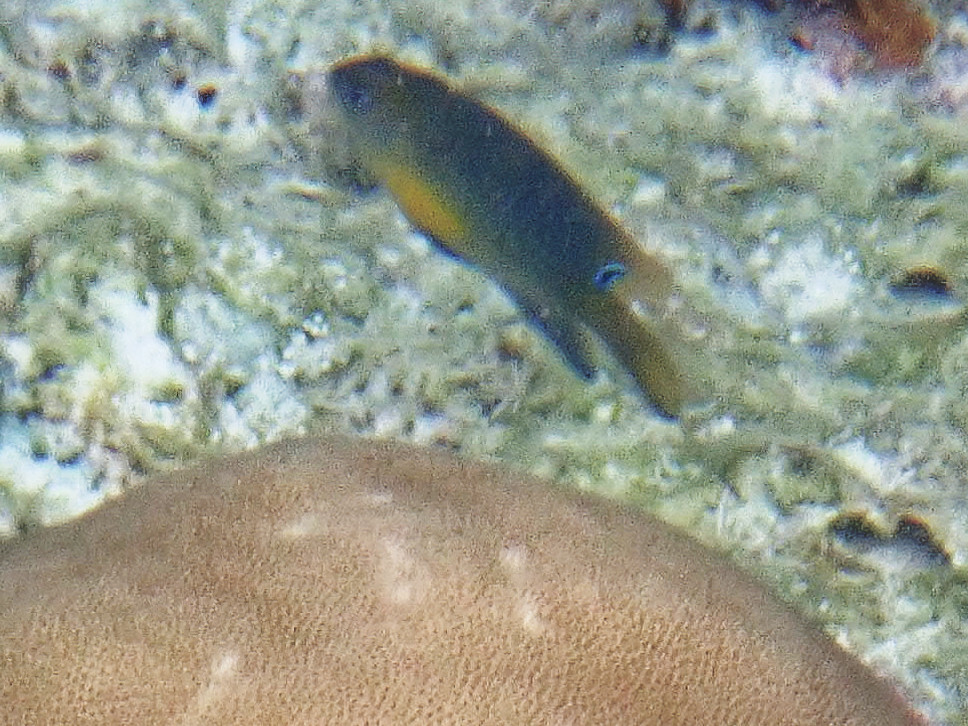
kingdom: Animalia
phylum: Chordata
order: Perciformes
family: Pomacentridae
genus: Chrysiptera
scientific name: Chrysiptera unimaculata
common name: Onespot demoiselle
